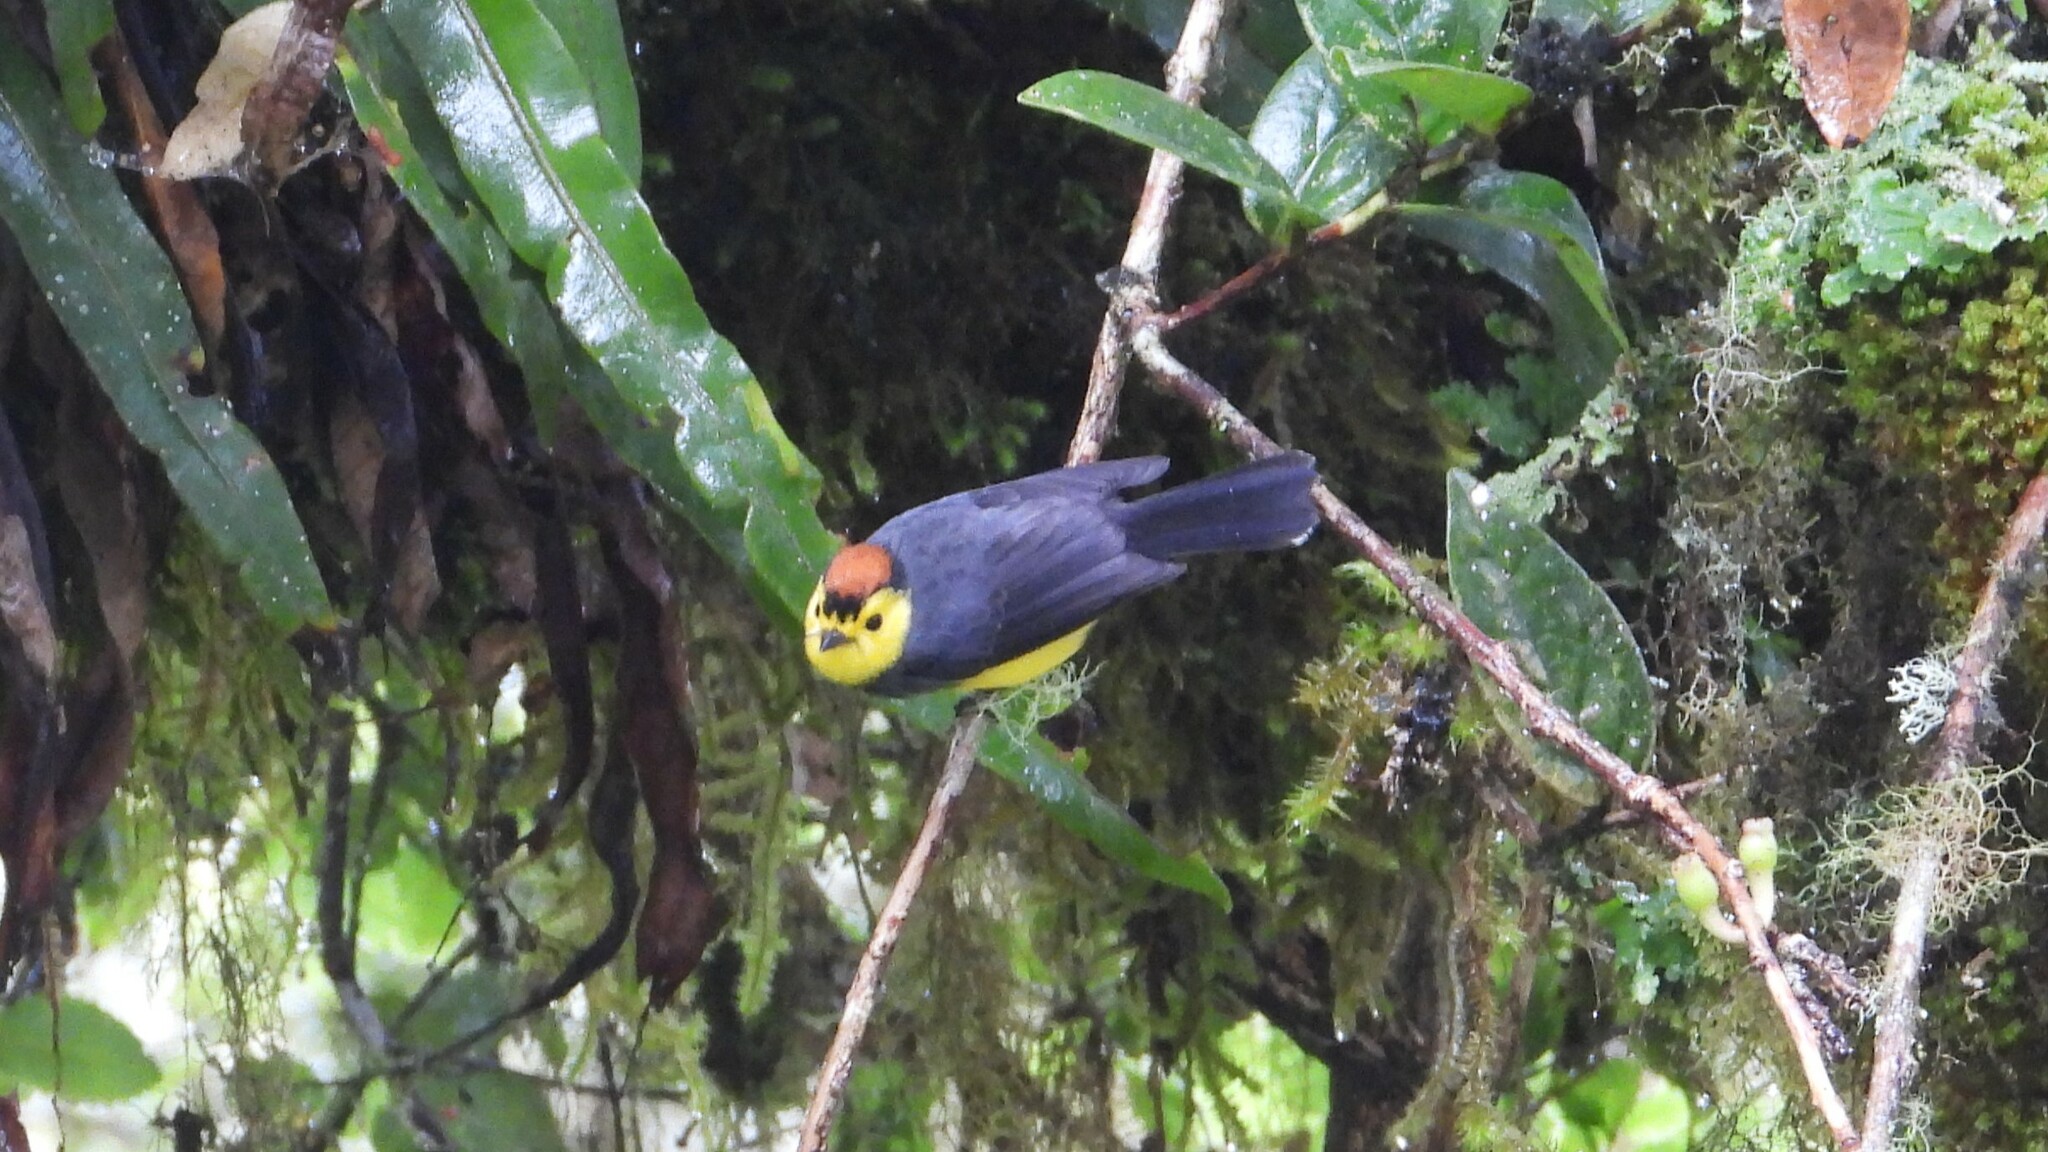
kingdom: Animalia
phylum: Chordata
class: Aves
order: Passeriformes
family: Parulidae
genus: Myioborus
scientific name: Myioborus torquatus
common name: Collared whitestart
